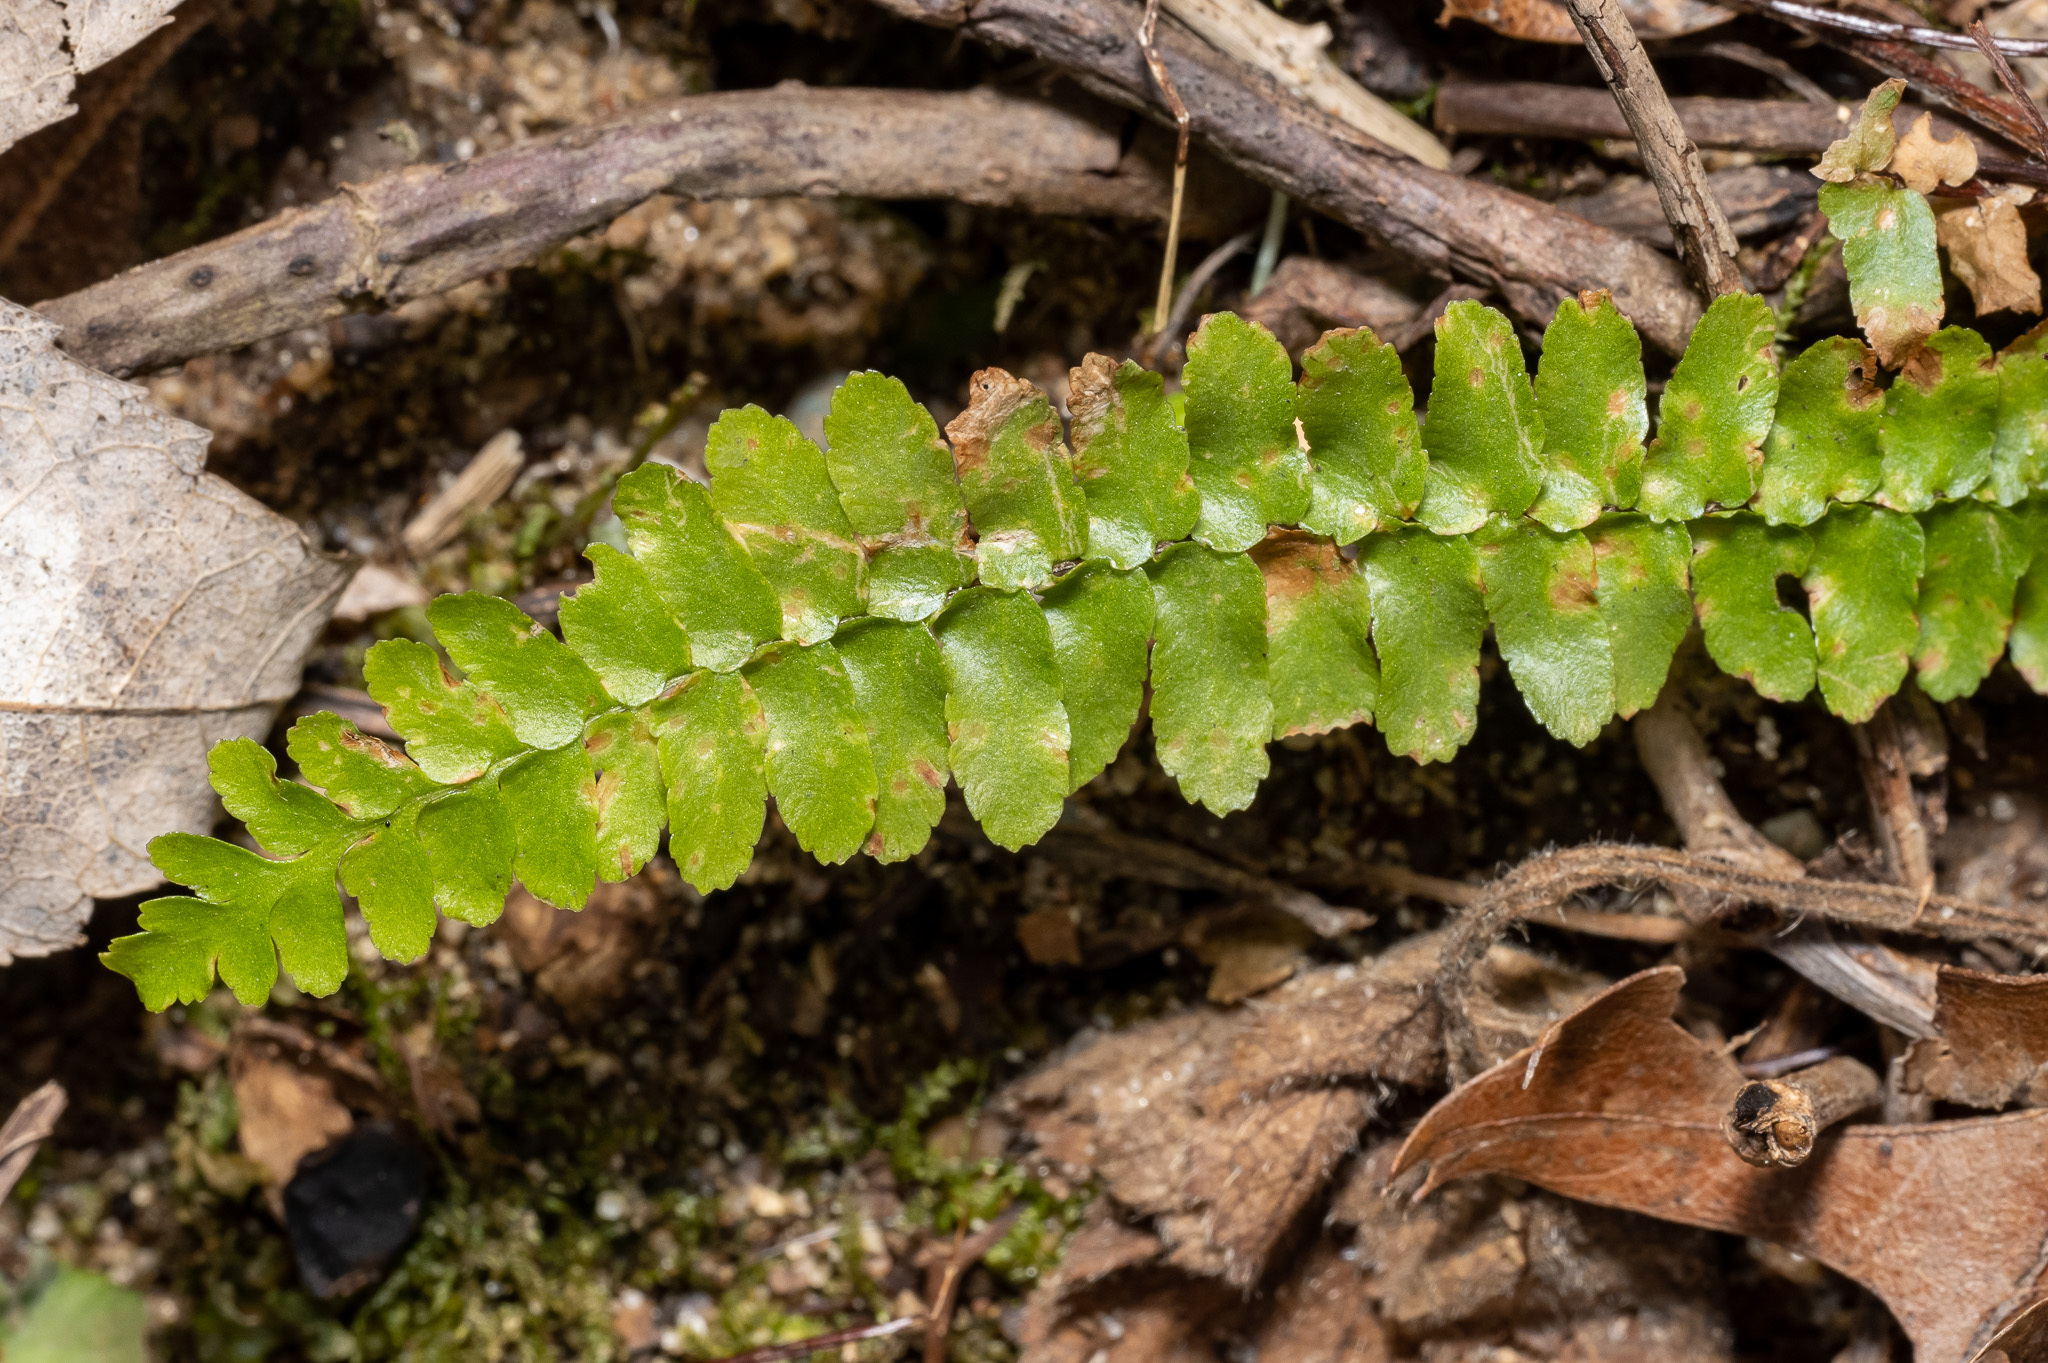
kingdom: Plantae
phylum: Tracheophyta
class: Polypodiopsida
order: Polypodiales
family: Aspleniaceae
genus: Asplenium
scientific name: Asplenium platyneuron
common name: Ebony spleenwort
